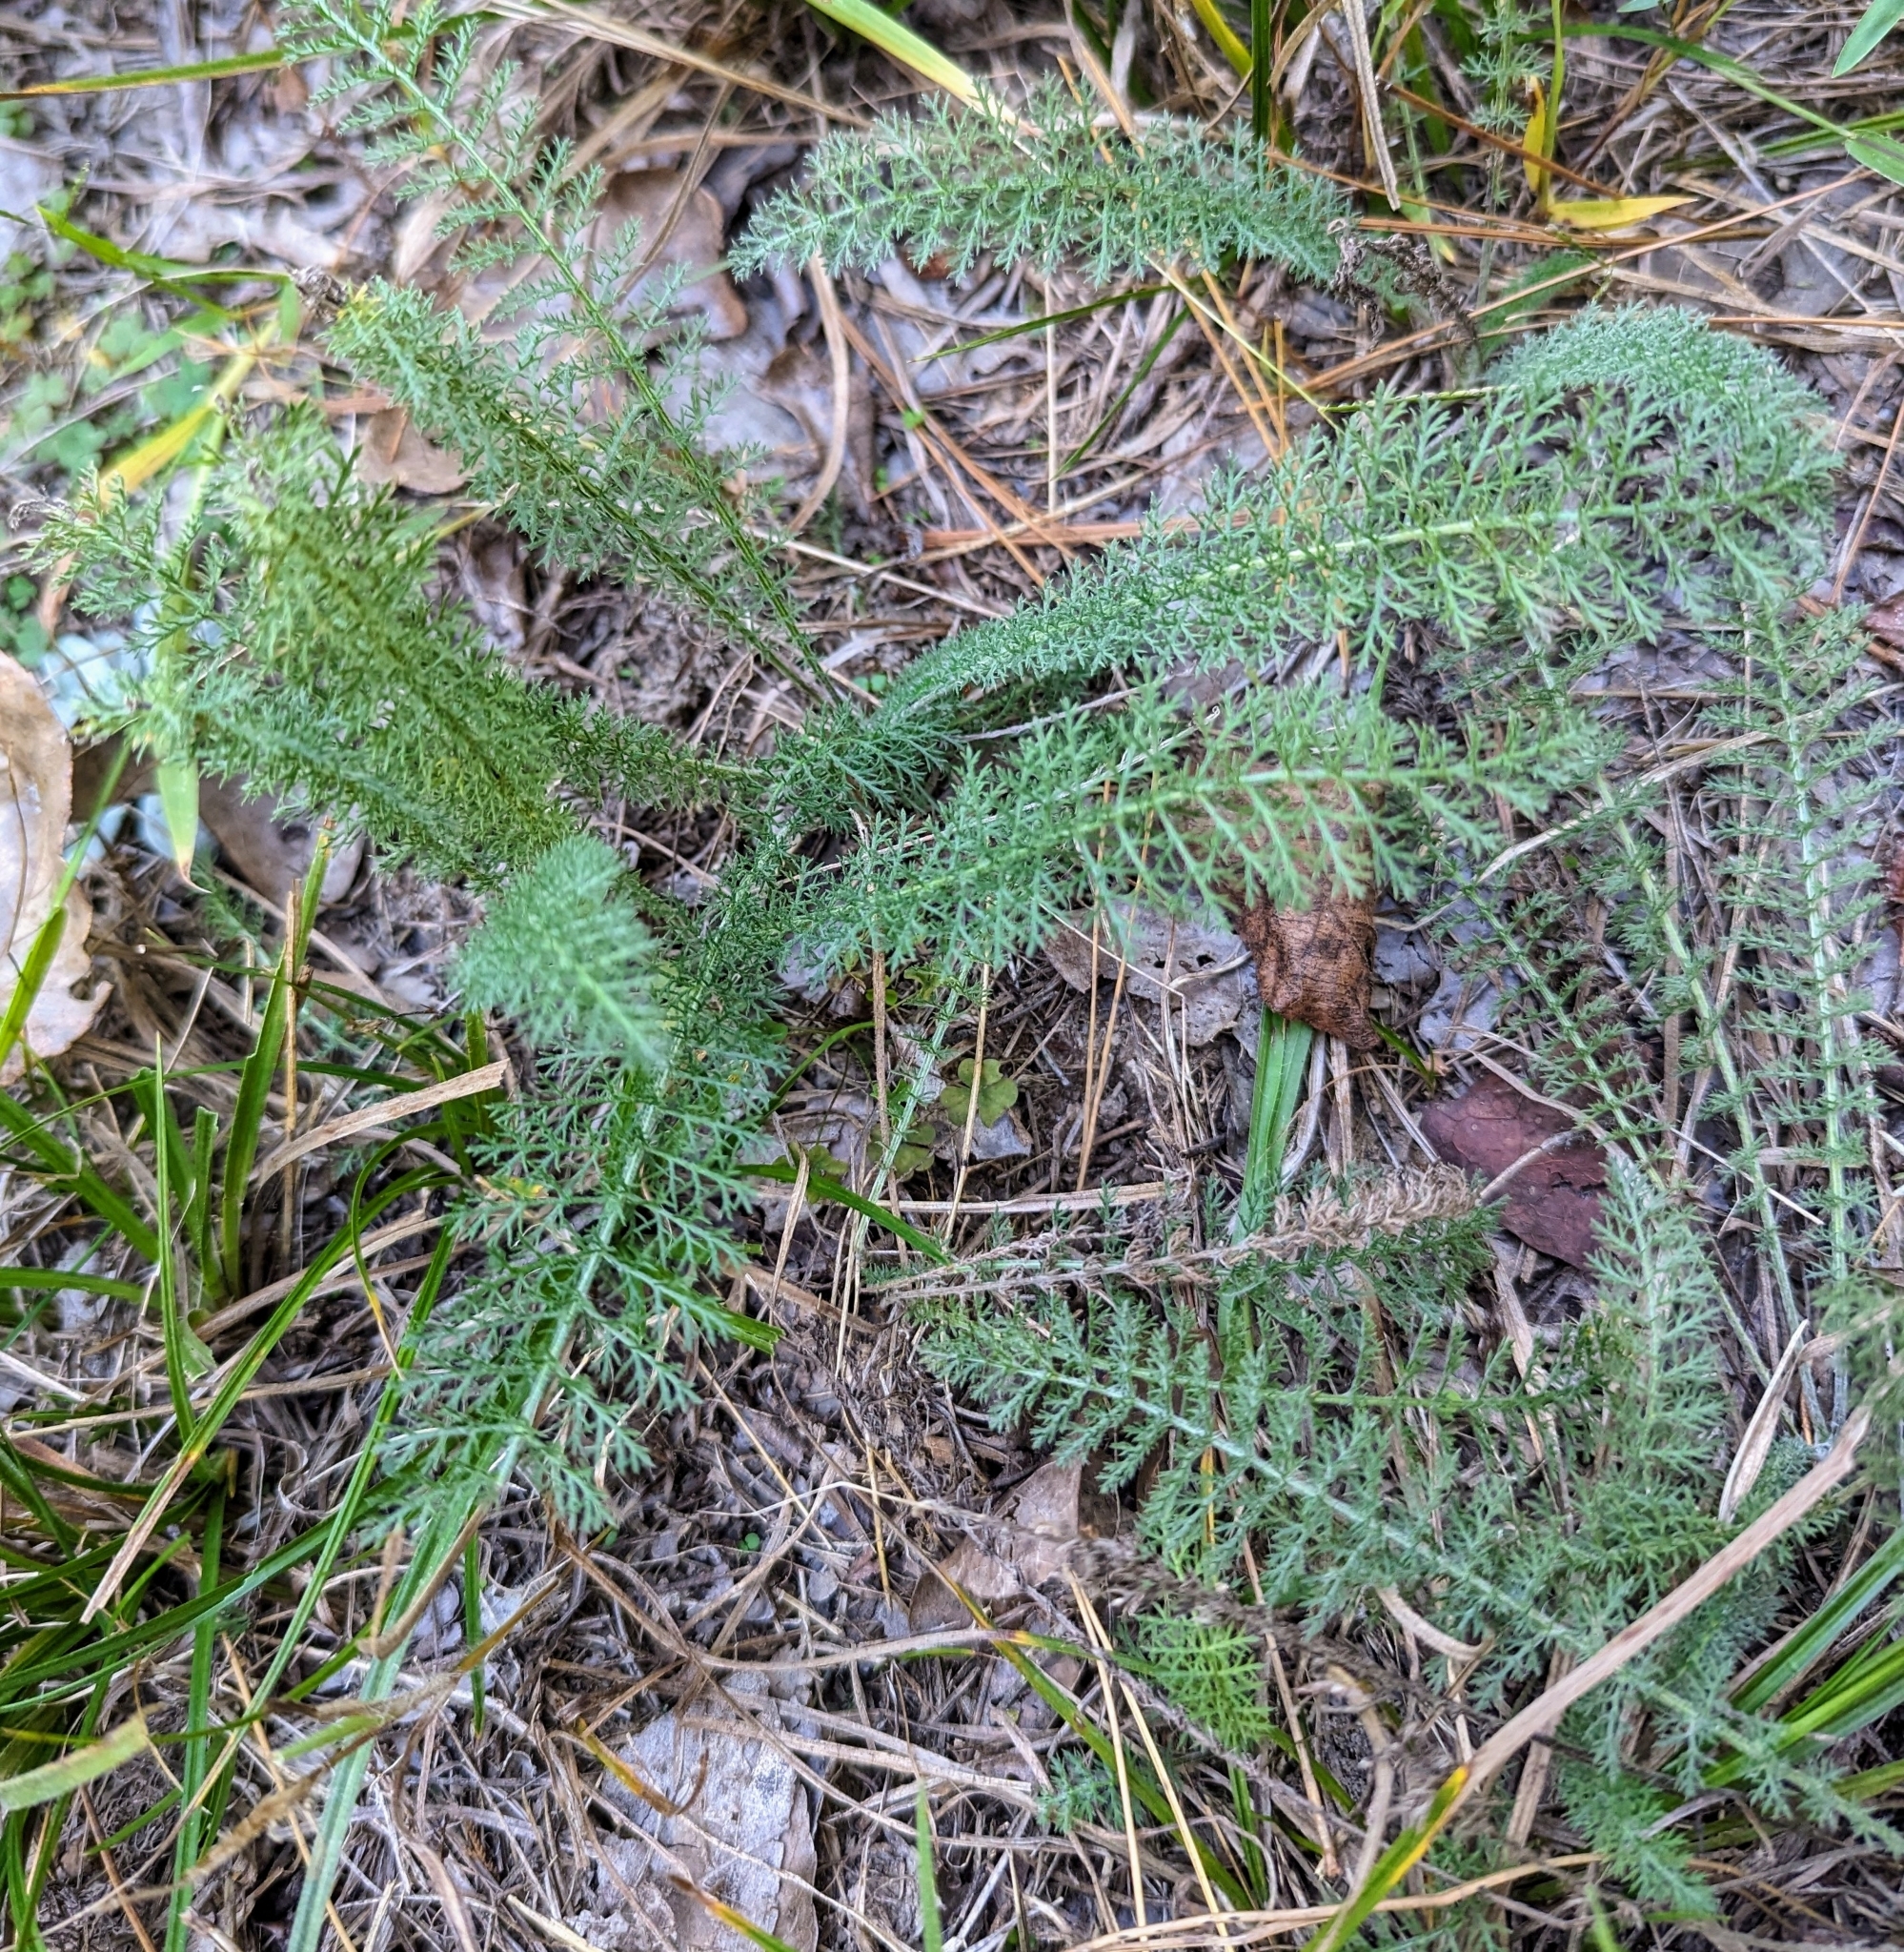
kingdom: Plantae
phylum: Tracheophyta
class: Magnoliopsida
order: Asterales
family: Asteraceae
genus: Achillea
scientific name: Achillea millefolium
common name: Yarrow
